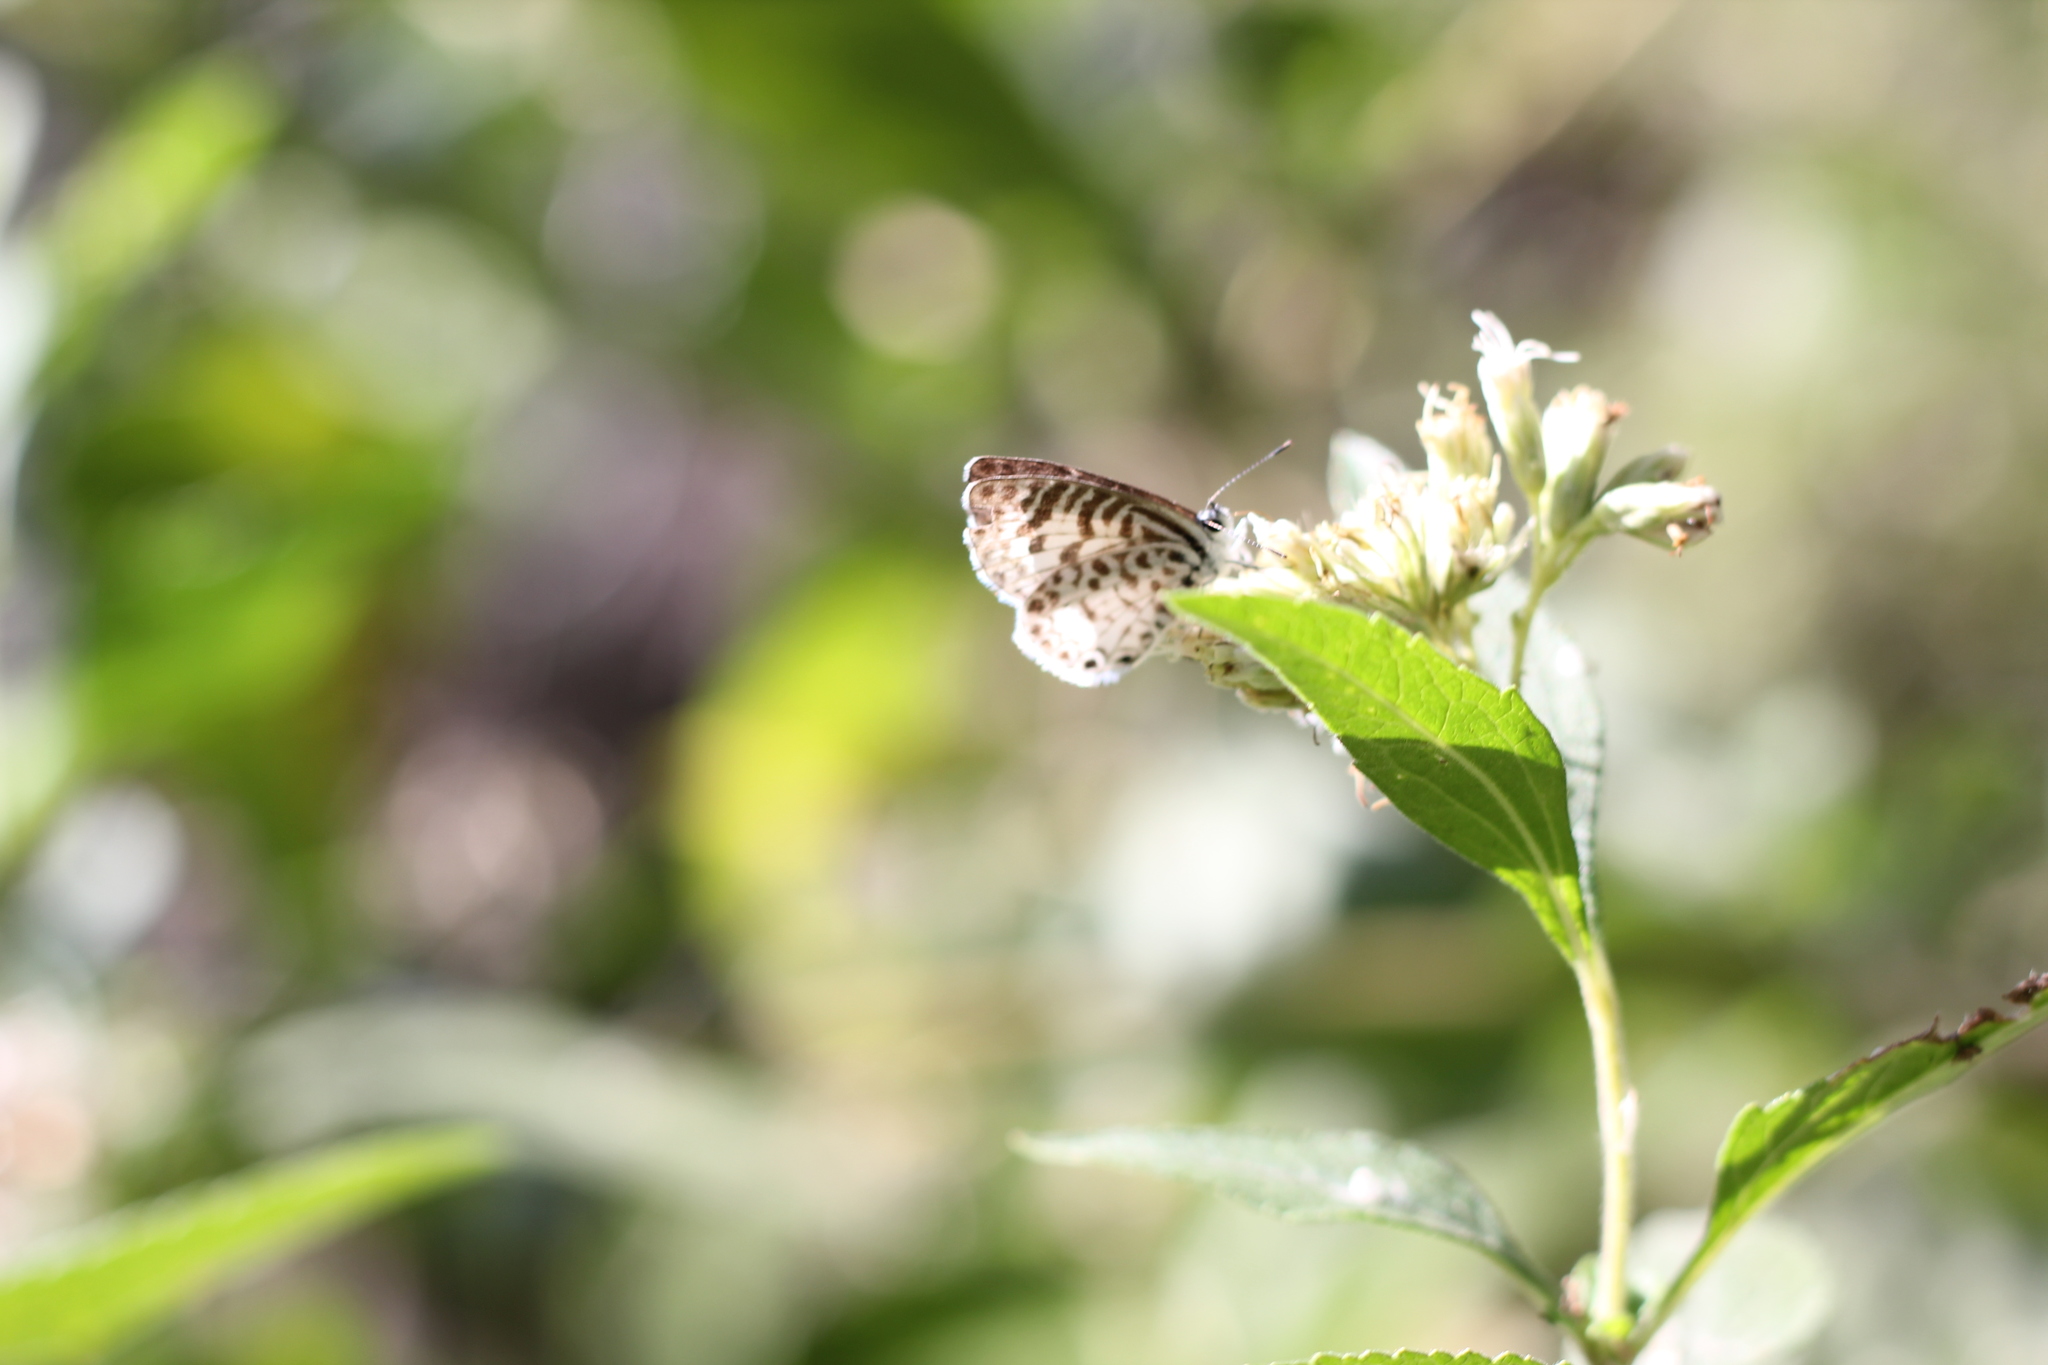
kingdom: Animalia
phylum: Arthropoda
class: Insecta
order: Lepidoptera
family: Lycaenidae
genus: Leptotes
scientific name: Leptotes cassius
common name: Cassius blue
